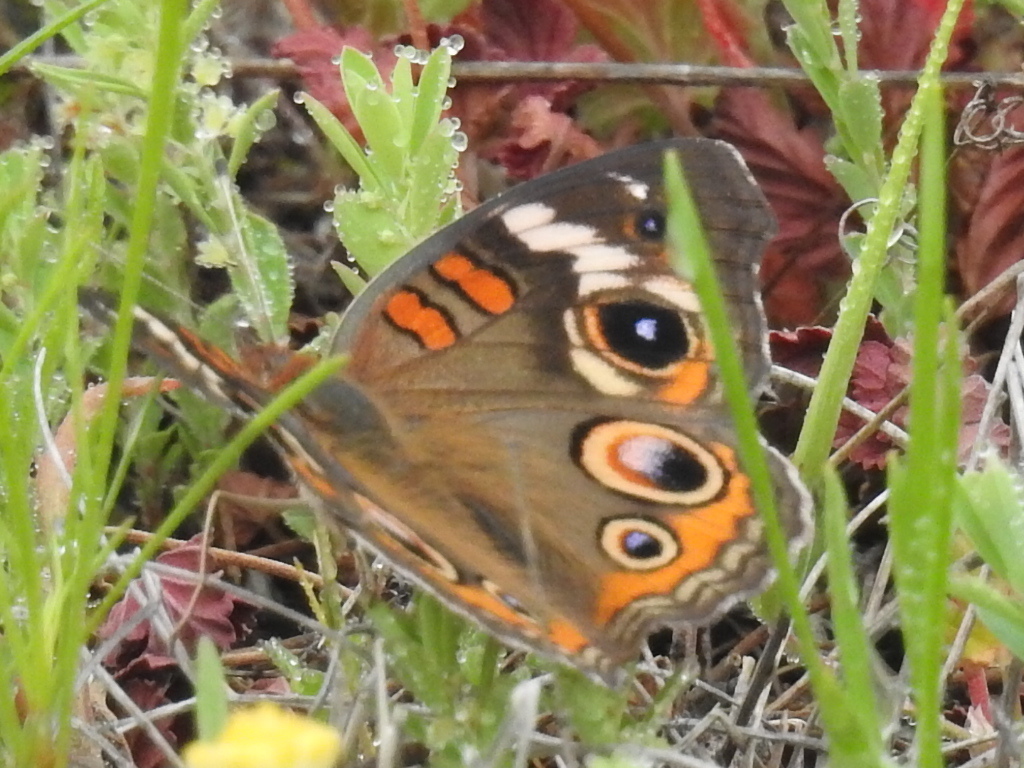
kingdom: Animalia
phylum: Arthropoda
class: Insecta
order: Lepidoptera
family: Nymphalidae
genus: Junonia
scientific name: Junonia coenia
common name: Common buckeye
